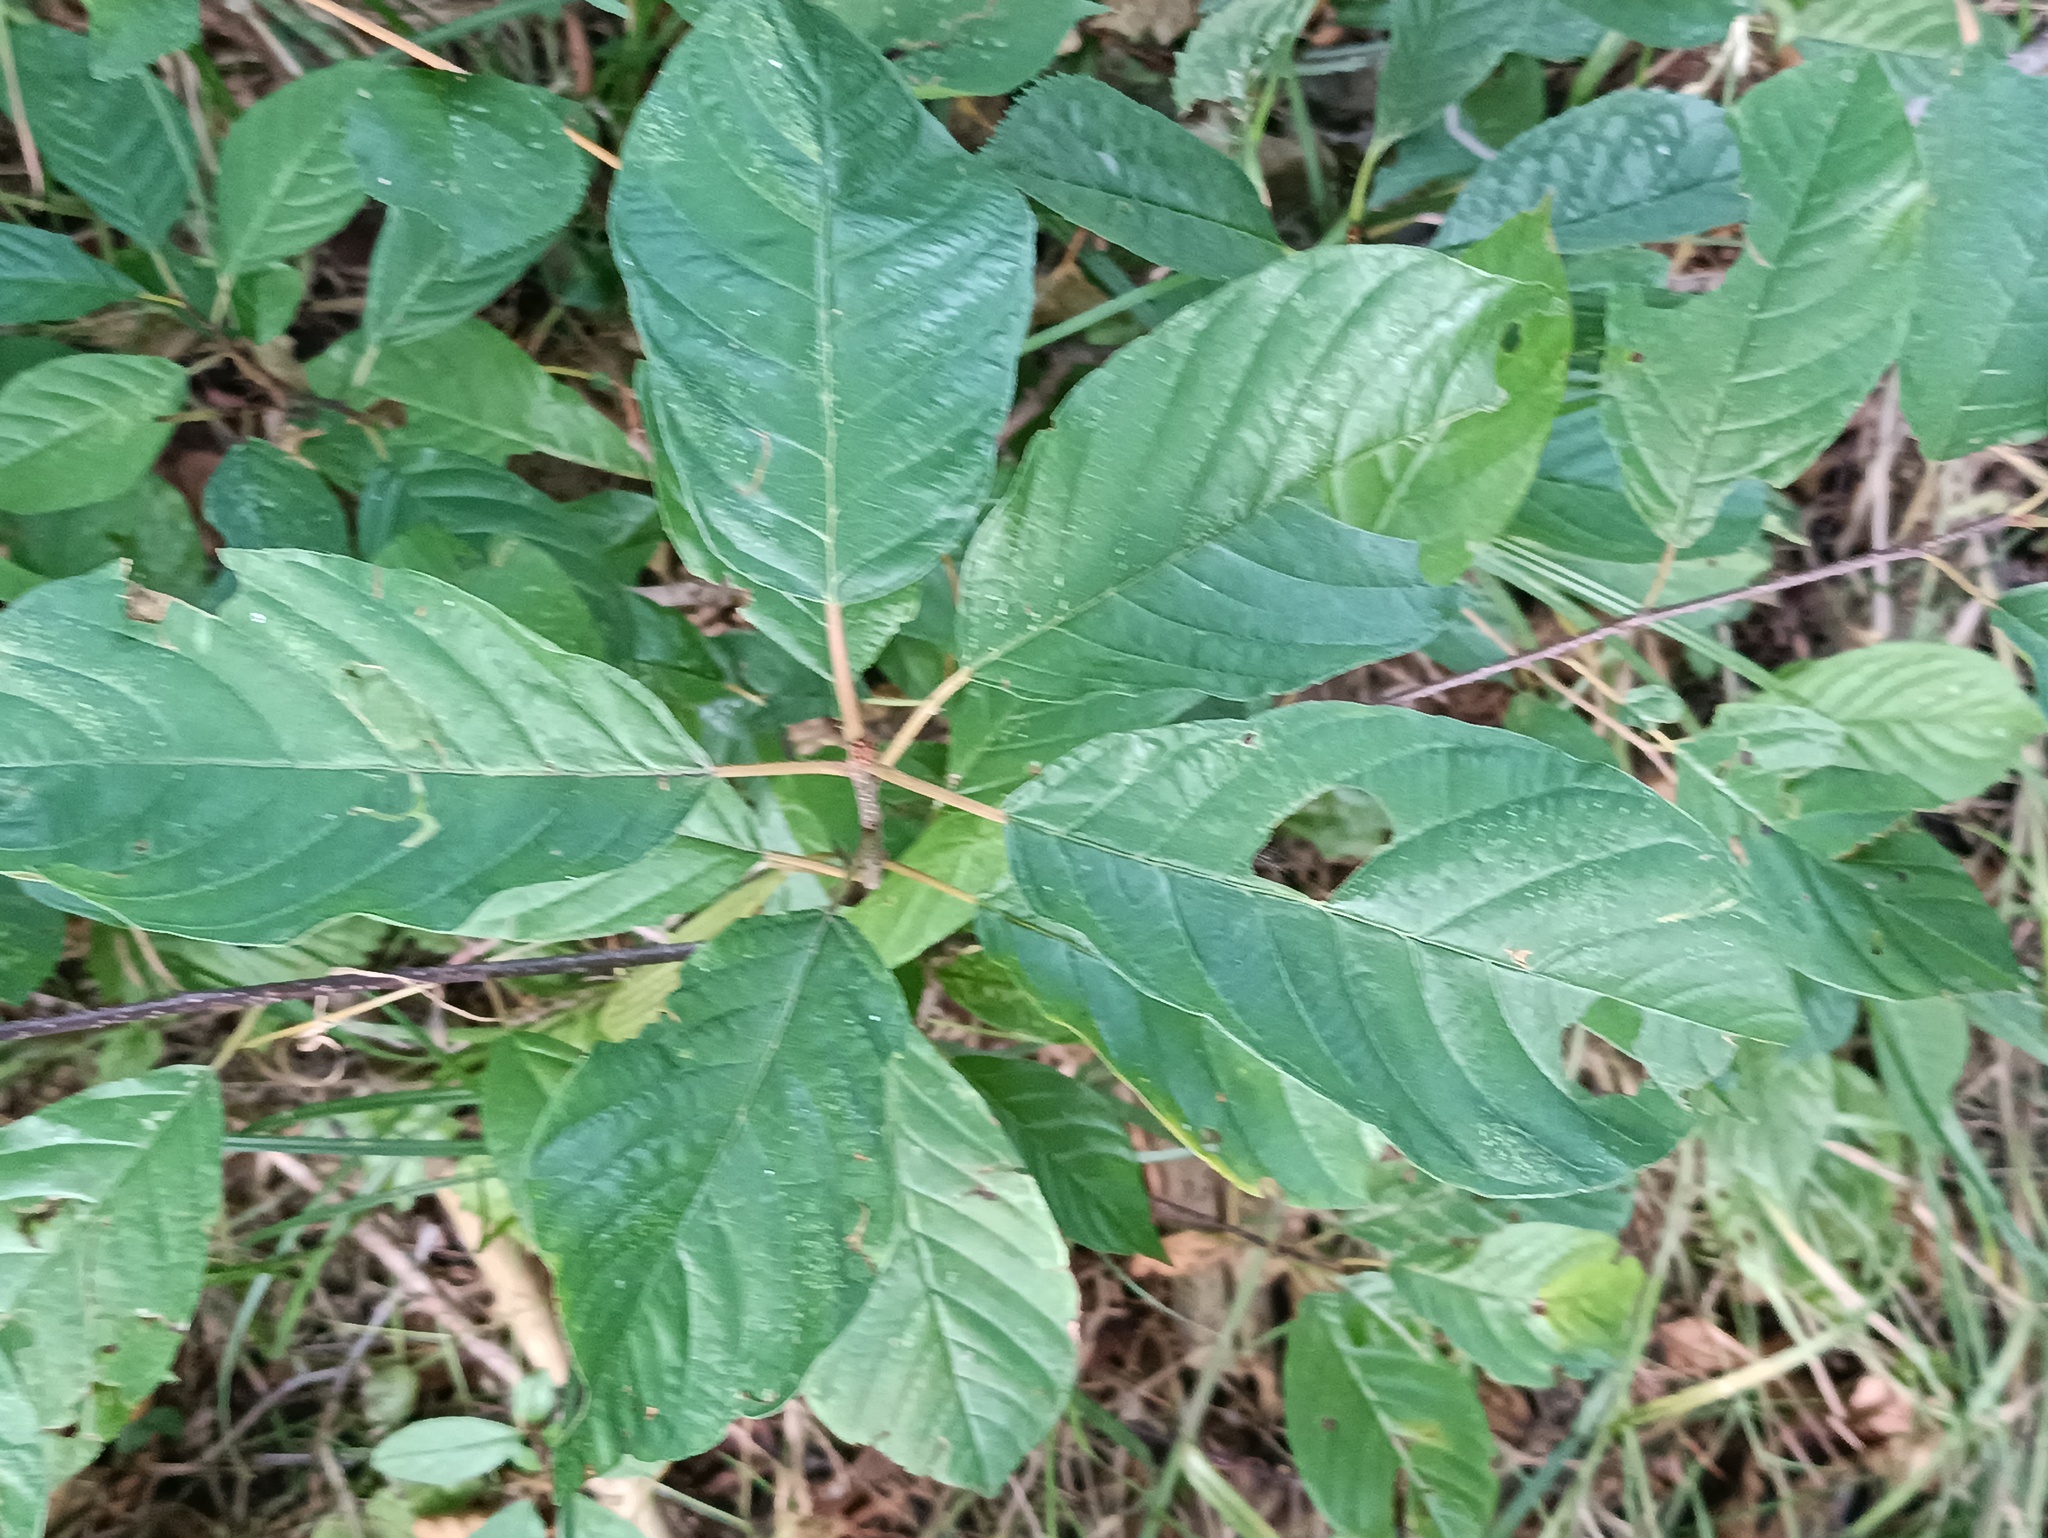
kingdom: Plantae
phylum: Tracheophyta
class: Magnoliopsida
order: Rosales
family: Rhamnaceae
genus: Frangula
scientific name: Frangula alnus
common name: Alder buckthorn
